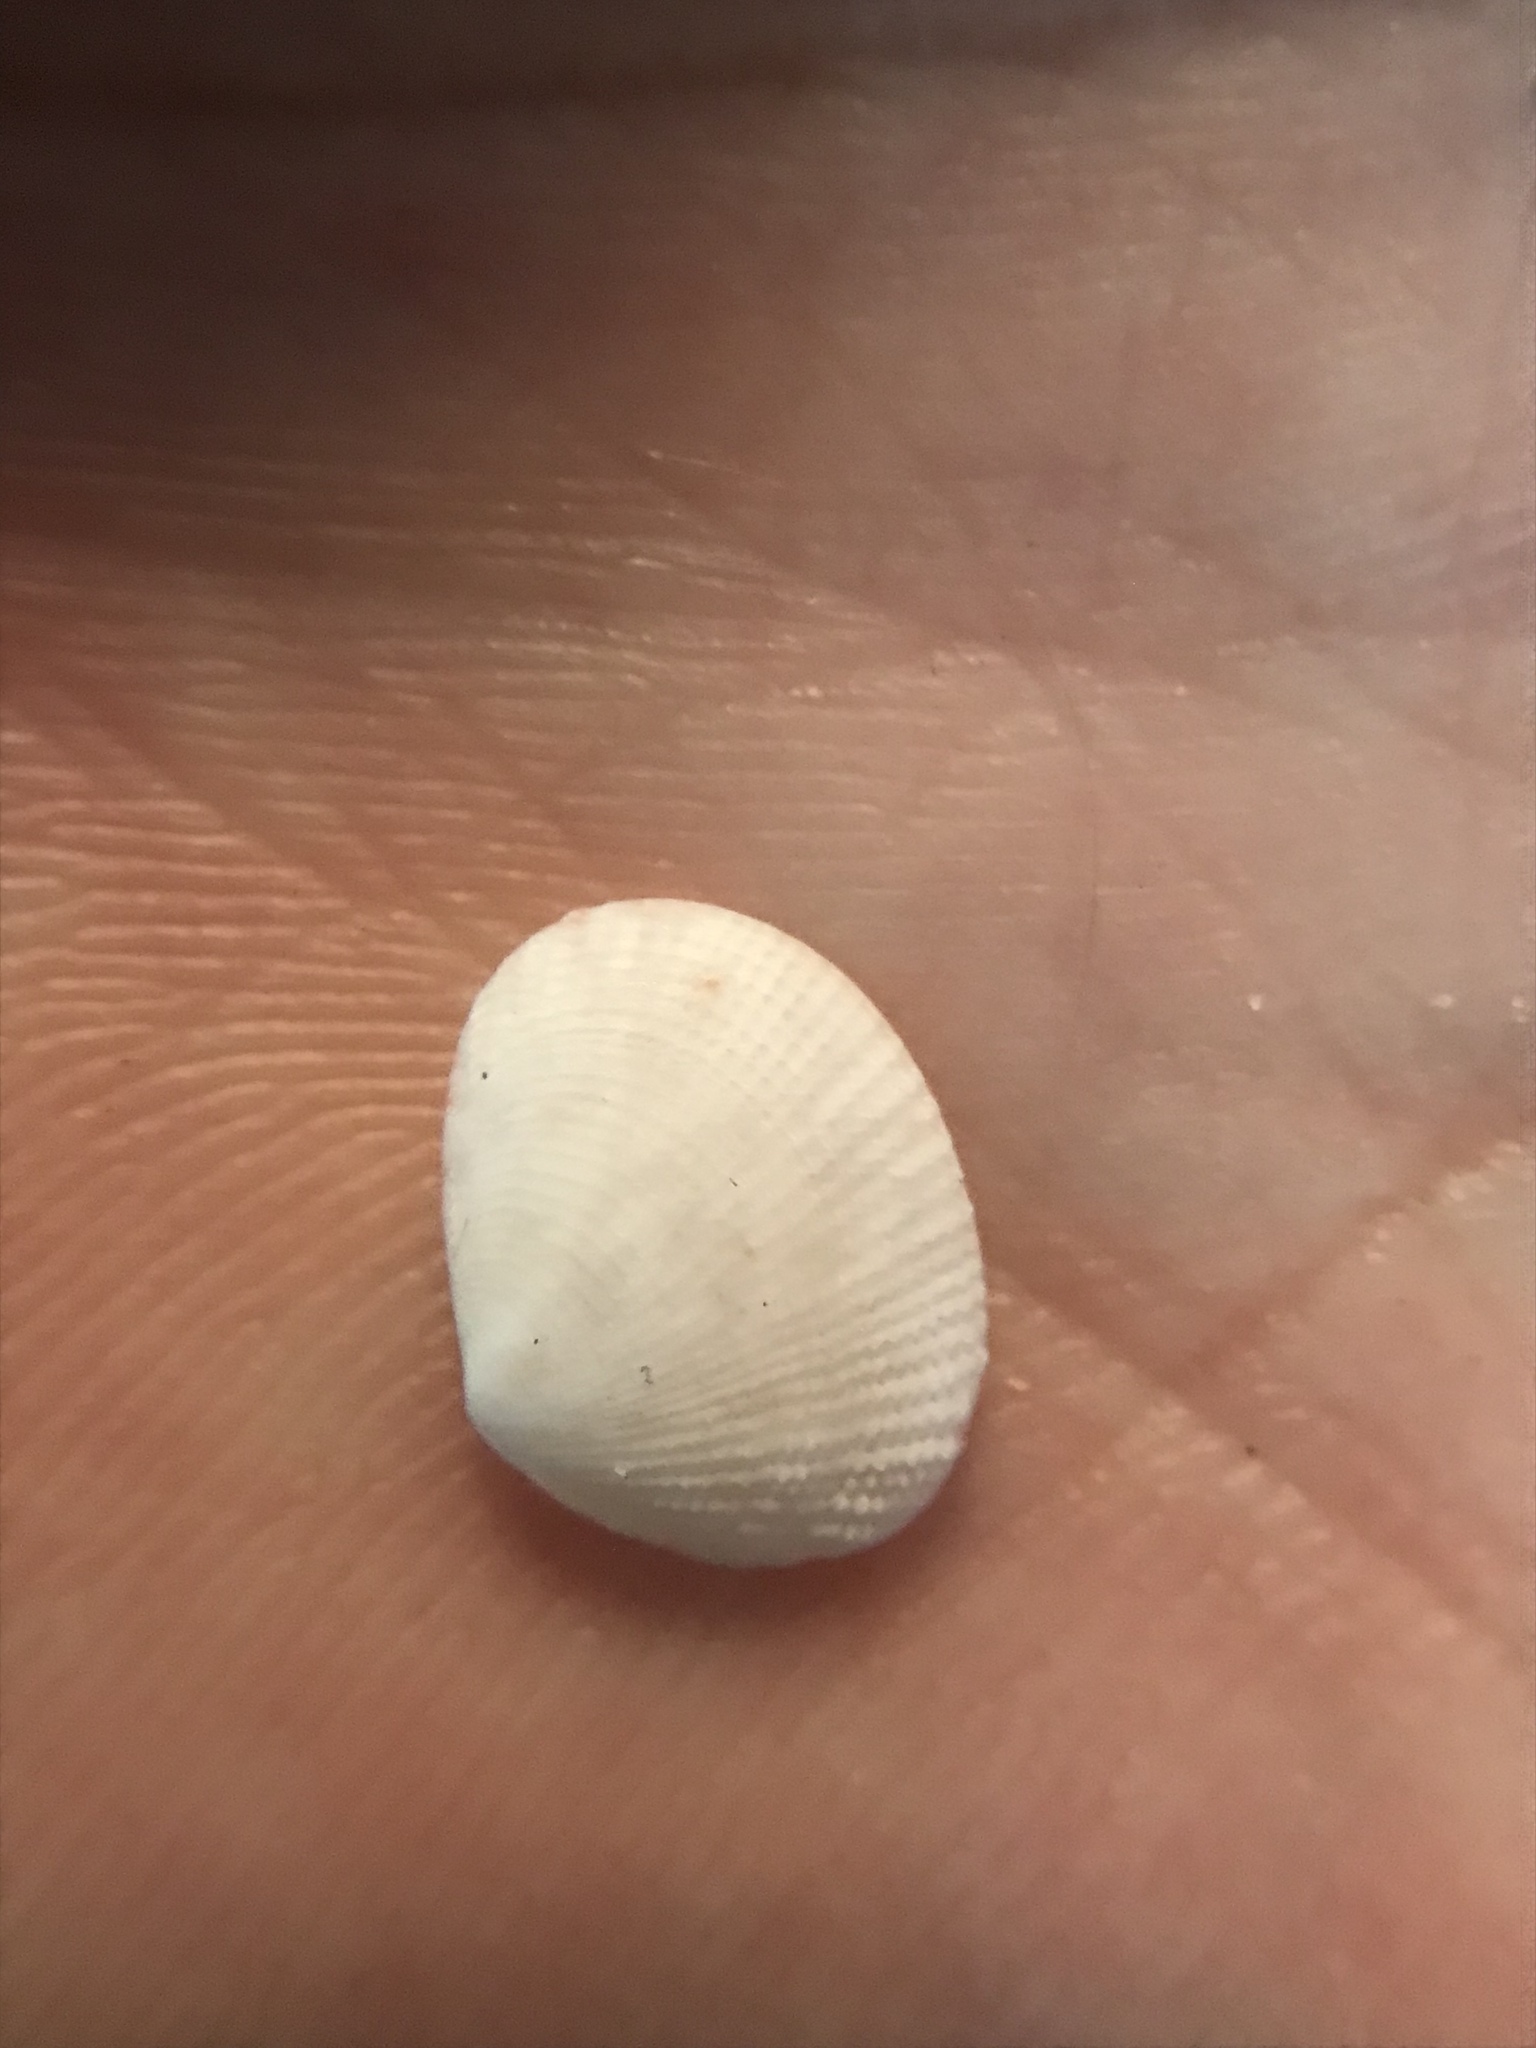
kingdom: Animalia
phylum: Mollusca
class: Bivalvia
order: Cardiida
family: Semelidae
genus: Semele
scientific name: Semele bellastriata
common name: Cancellate semele
